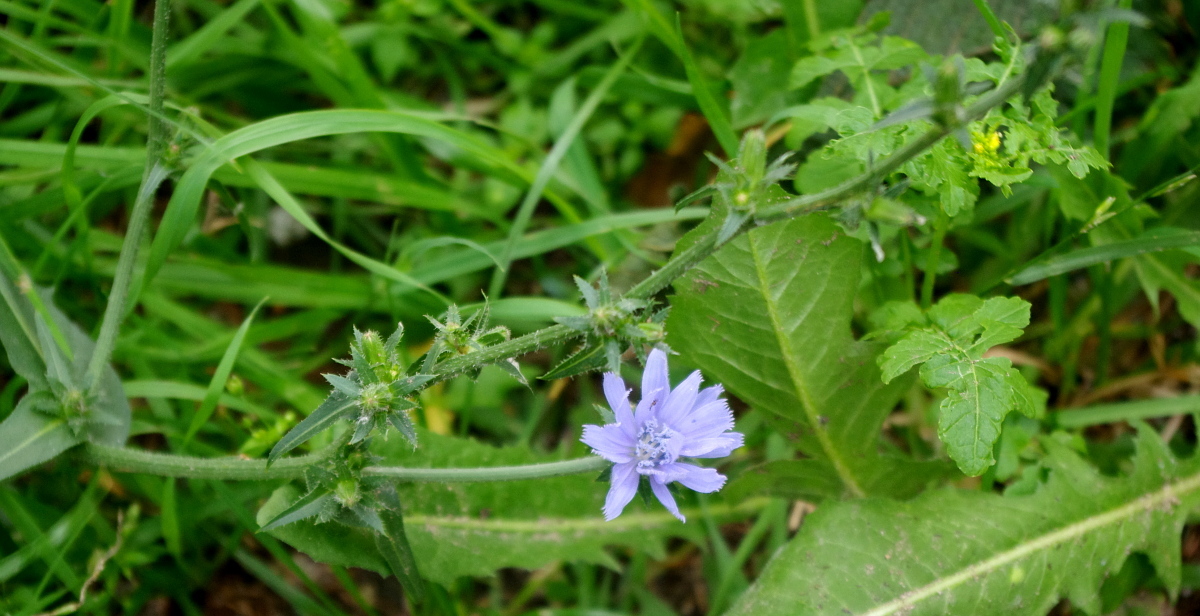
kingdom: Plantae
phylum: Tracheophyta
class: Magnoliopsida
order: Asterales
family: Asteraceae
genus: Cichorium
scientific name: Cichorium intybus
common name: Chicory
